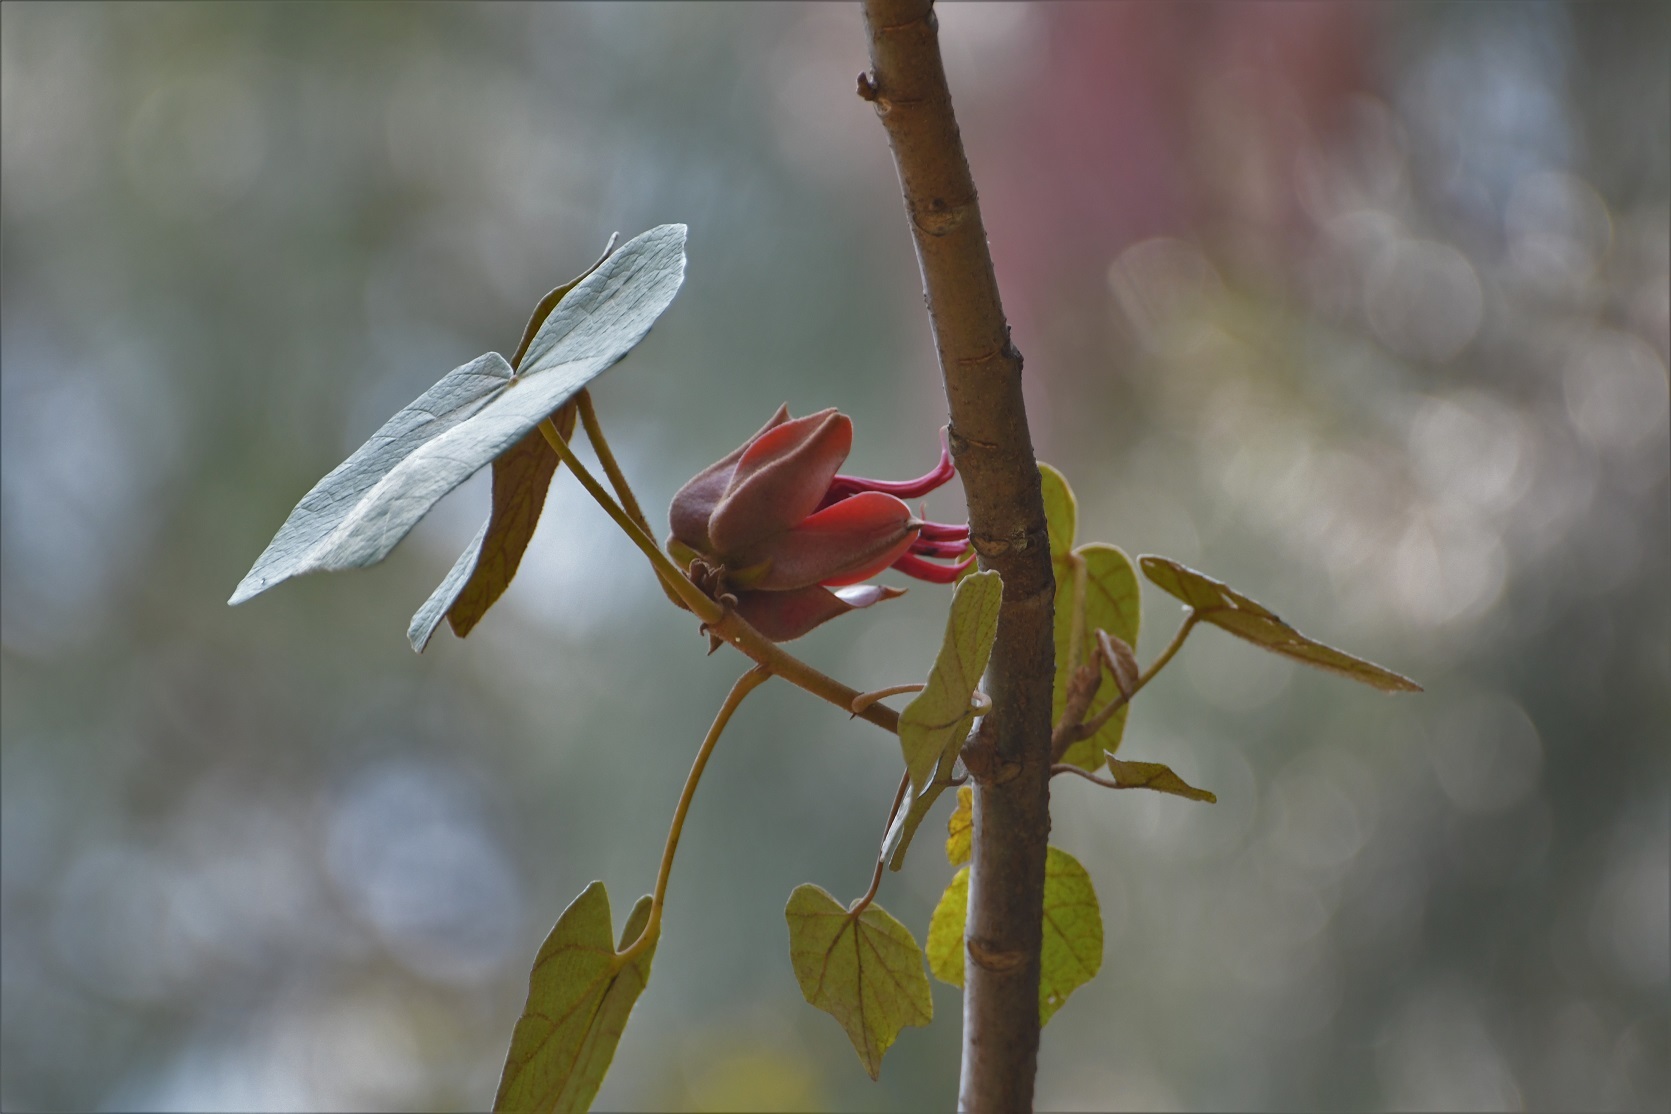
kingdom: Plantae
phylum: Tracheophyta
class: Magnoliopsida
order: Malvales
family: Malvaceae
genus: Chiranthodendron
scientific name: Chiranthodendron pentadactylon
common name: Mexican-hat-plant
